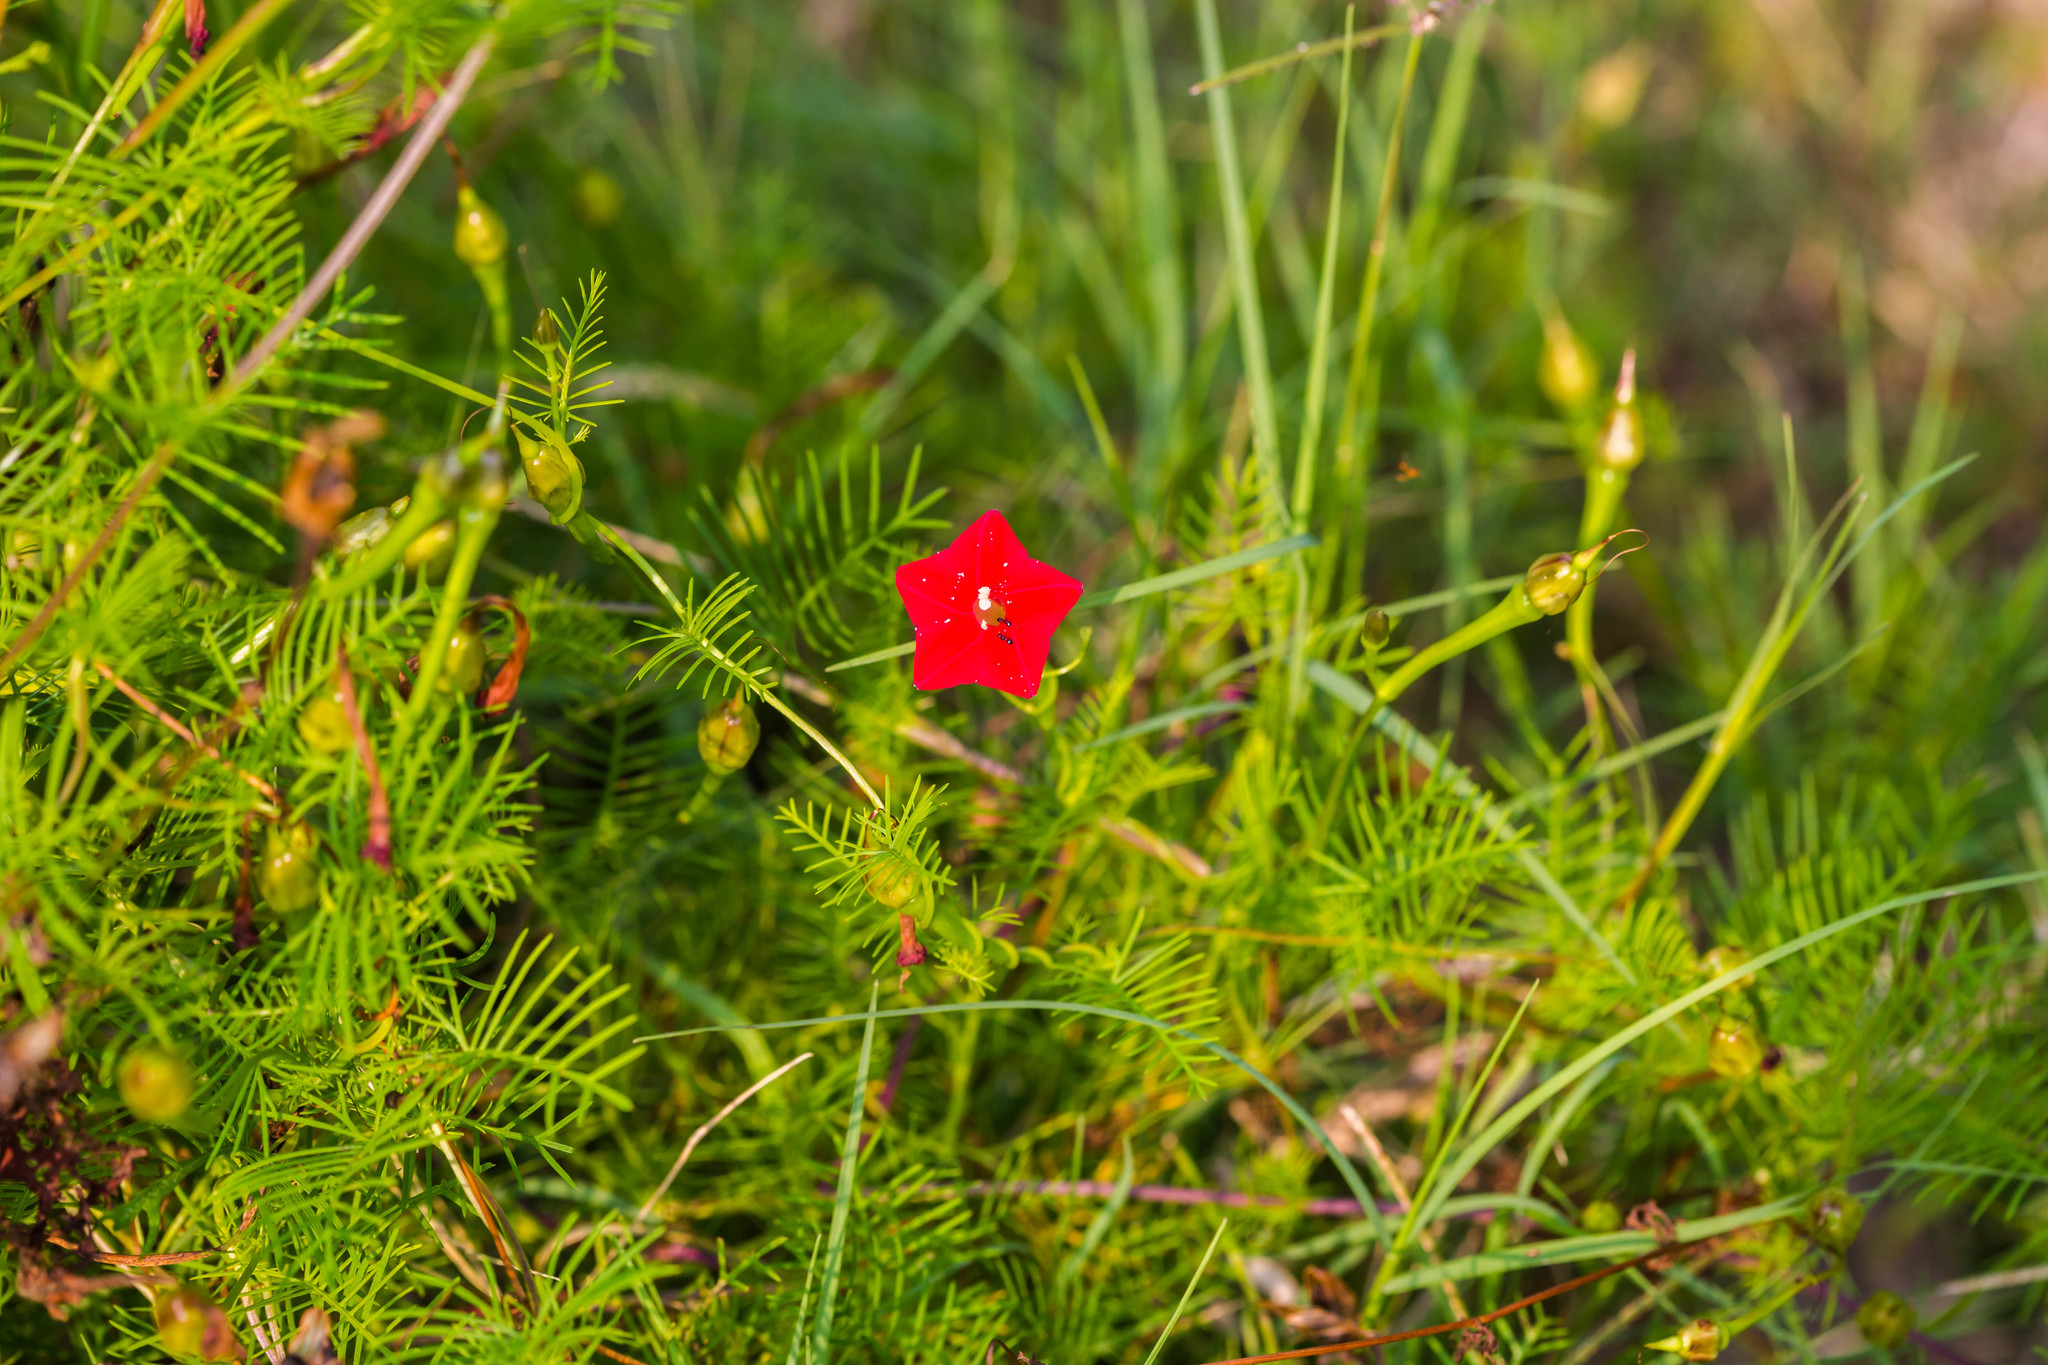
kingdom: Plantae
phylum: Tracheophyta
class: Magnoliopsida
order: Solanales
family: Convolvulaceae
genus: Ipomoea
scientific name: Ipomoea quamoclit
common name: Cypress vine
